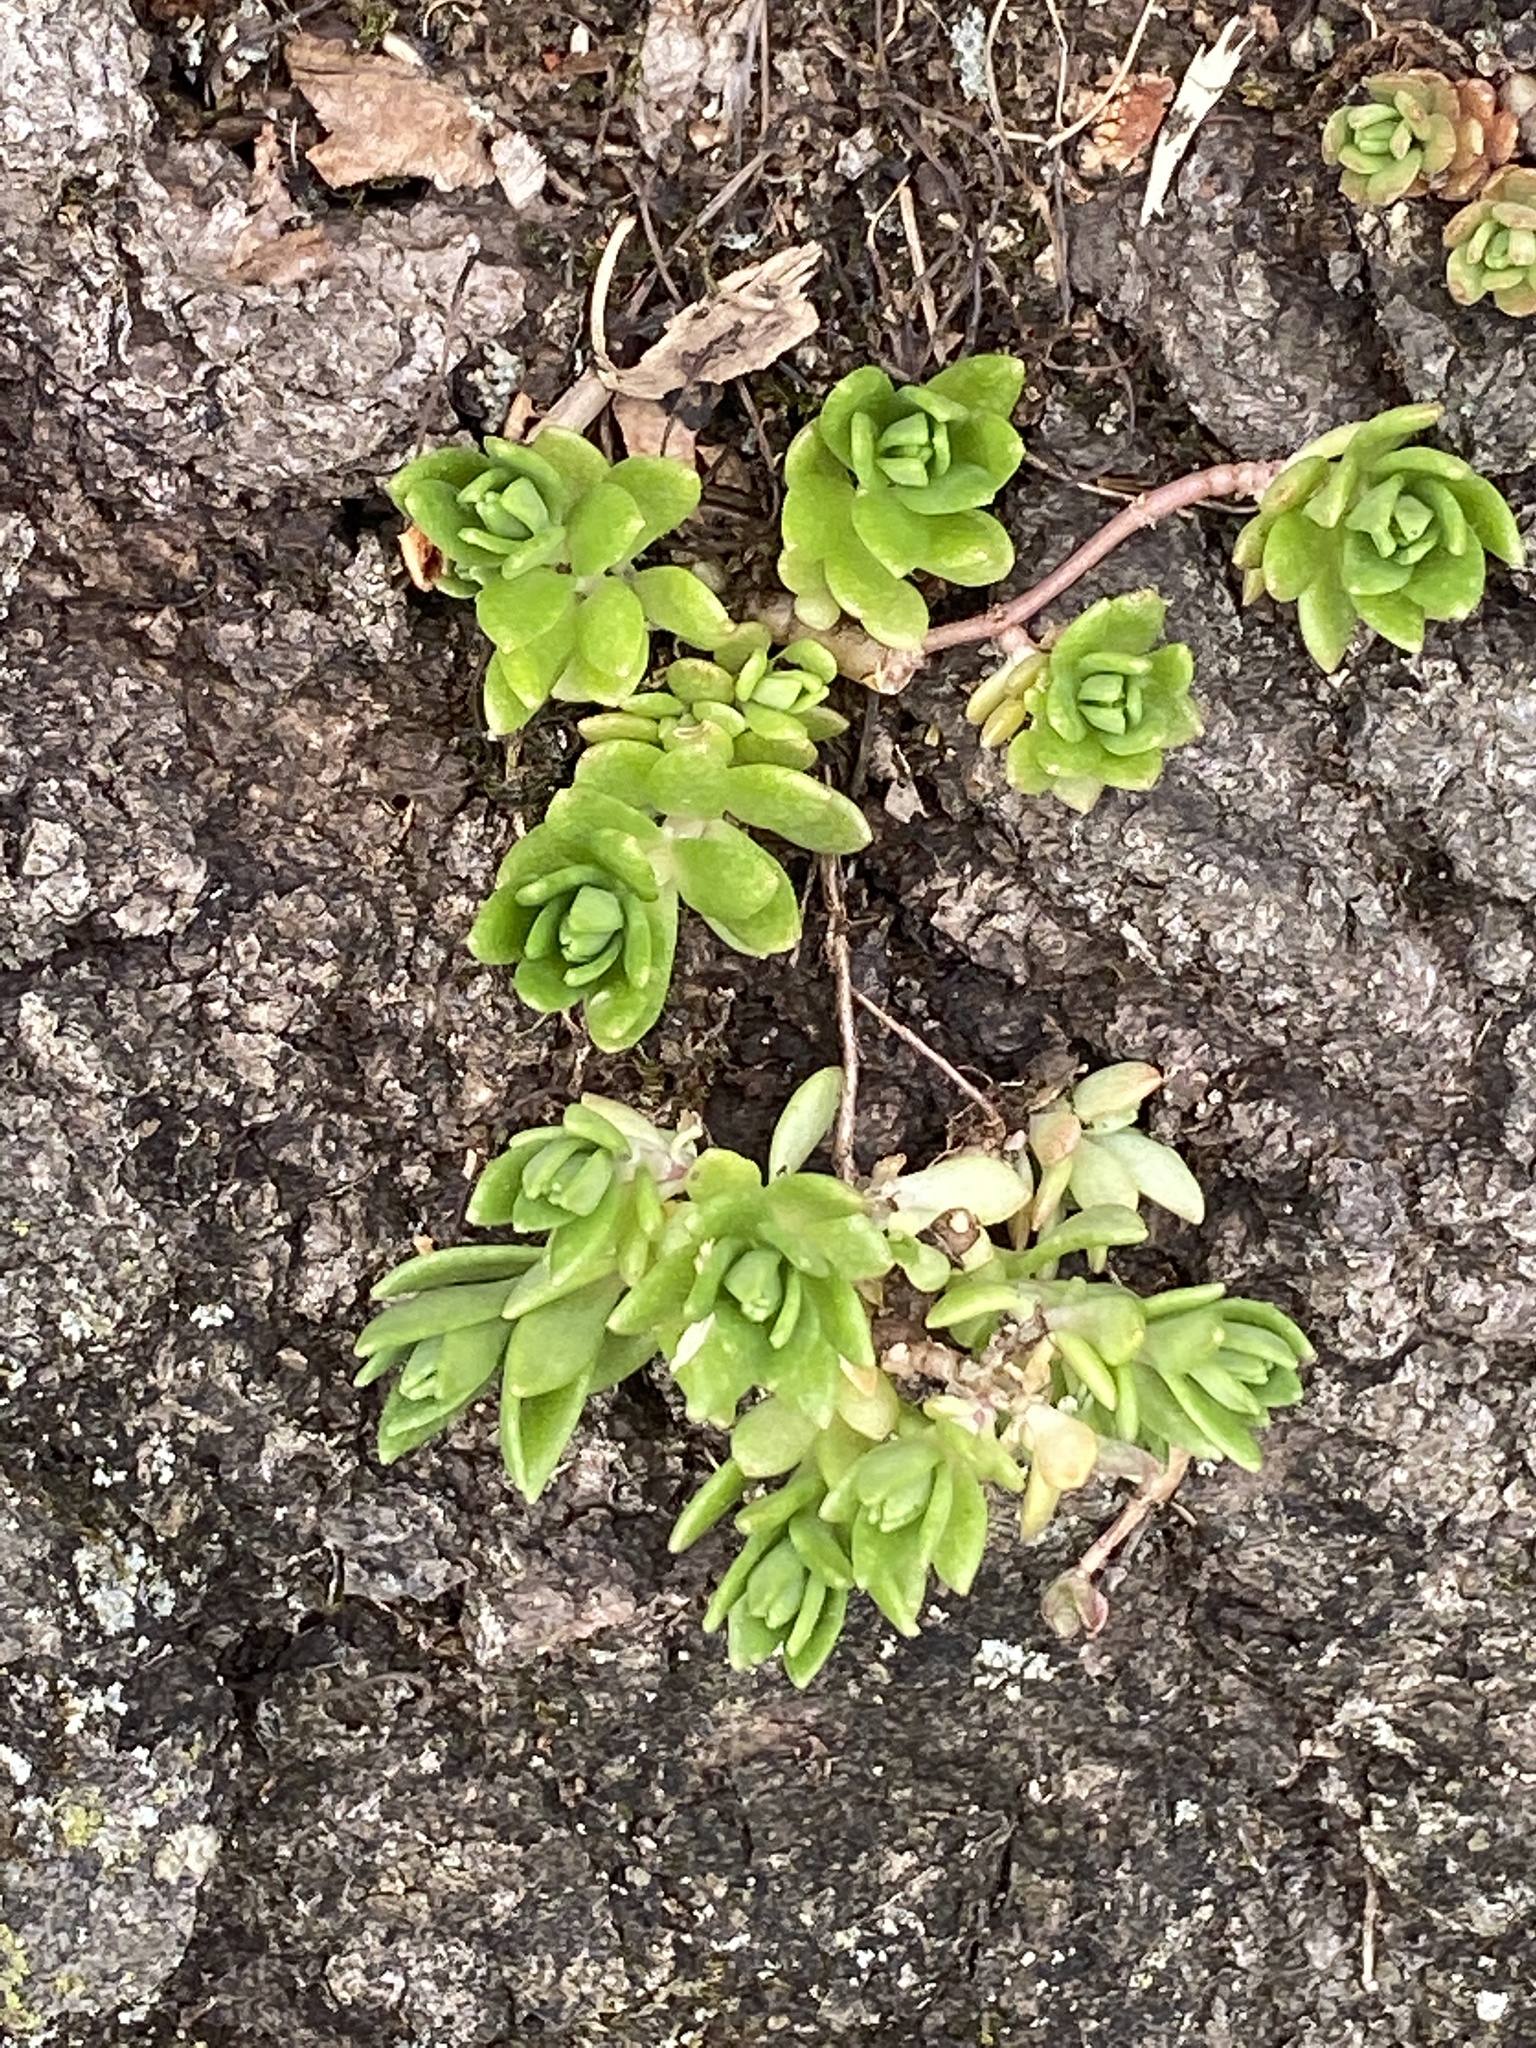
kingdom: Plantae
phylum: Tracheophyta
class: Magnoliopsida
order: Saxifragales
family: Crassulaceae
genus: Sedum
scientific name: Sedum sarmentosum
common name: Stringy stonecrop
